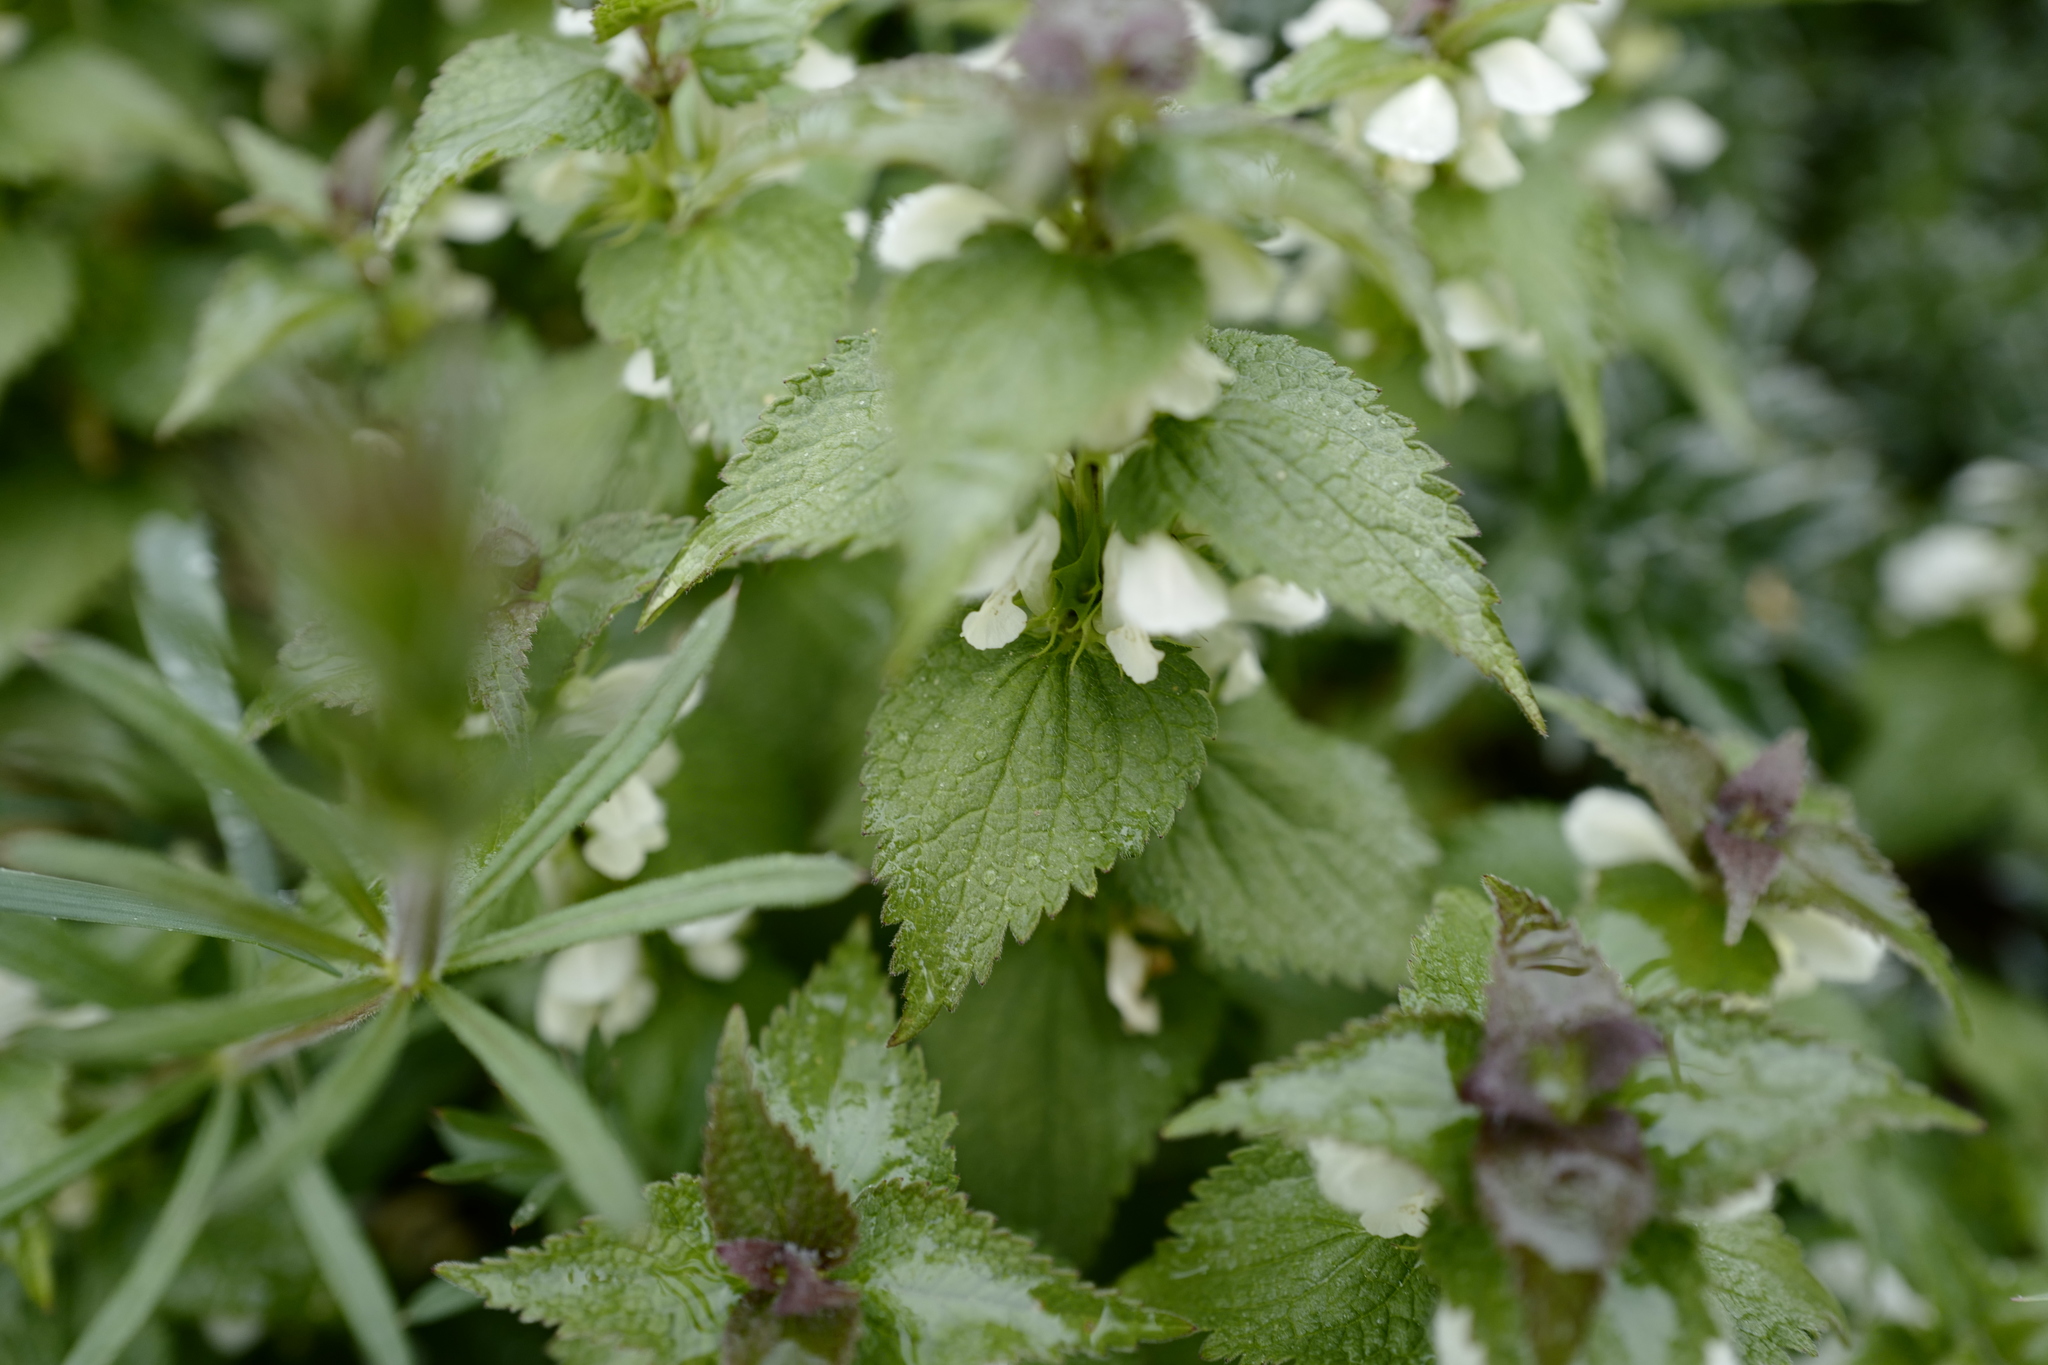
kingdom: Plantae
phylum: Tracheophyta
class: Magnoliopsida
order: Lamiales
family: Lamiaceae
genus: Lamium
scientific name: Lamium album
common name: White dead-nettle
